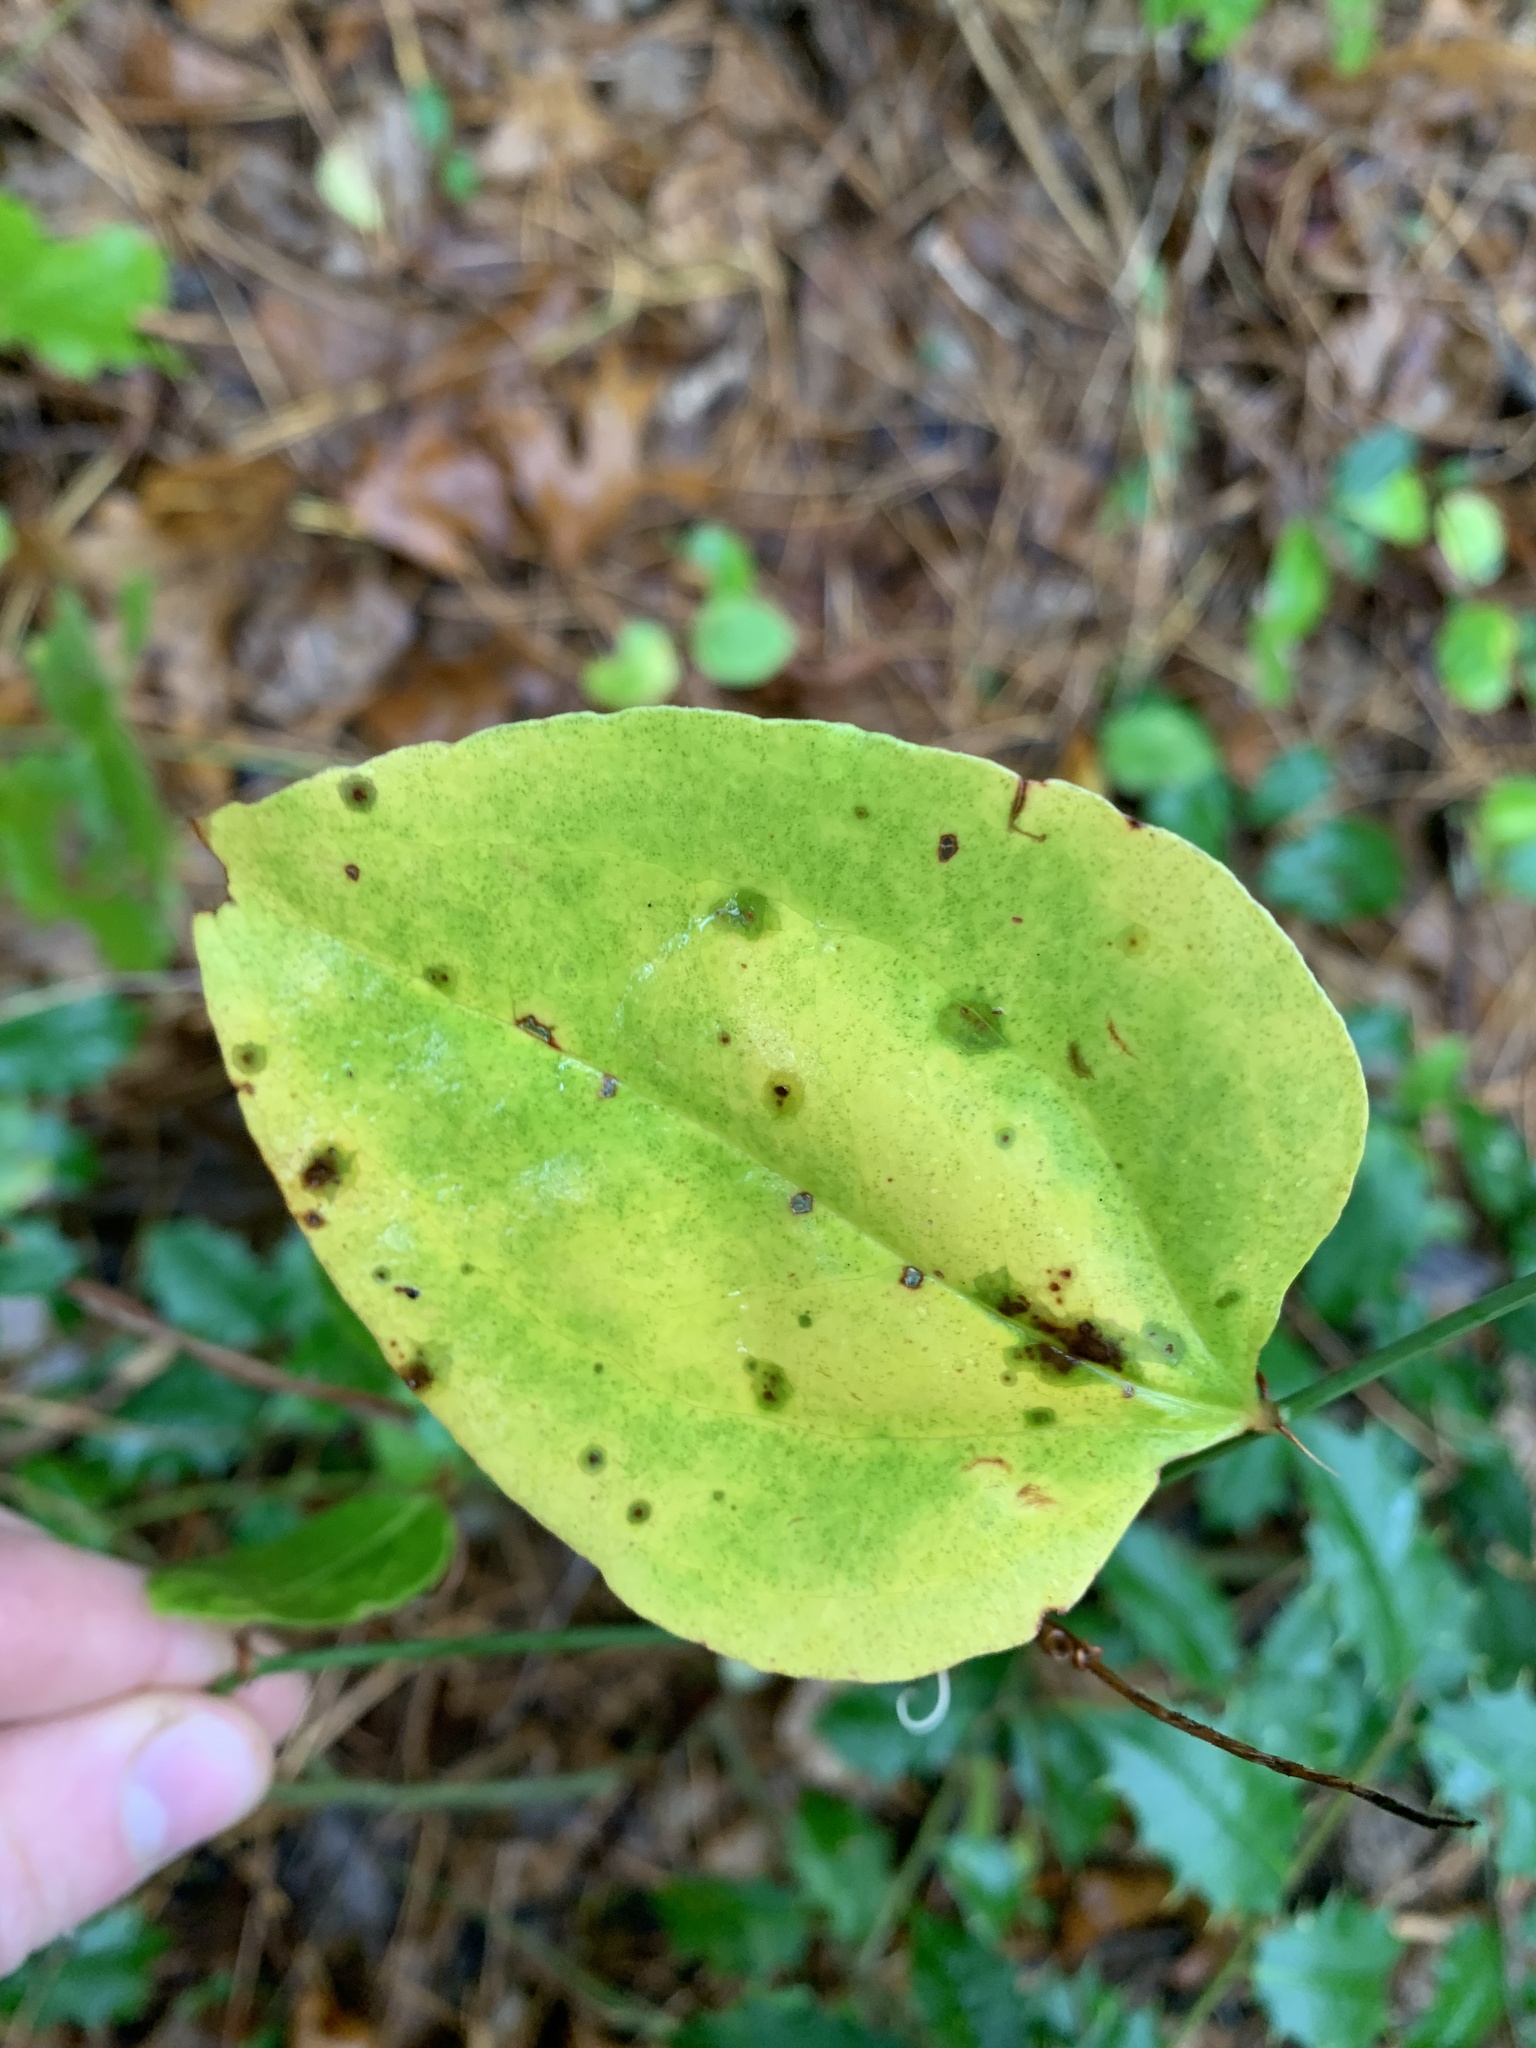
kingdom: Plantae
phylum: Tracheophyta
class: Liliopsida
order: Liliales
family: Smilacaceae
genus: Smilax
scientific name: Smilax rotundifolia
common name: Bullbriar
